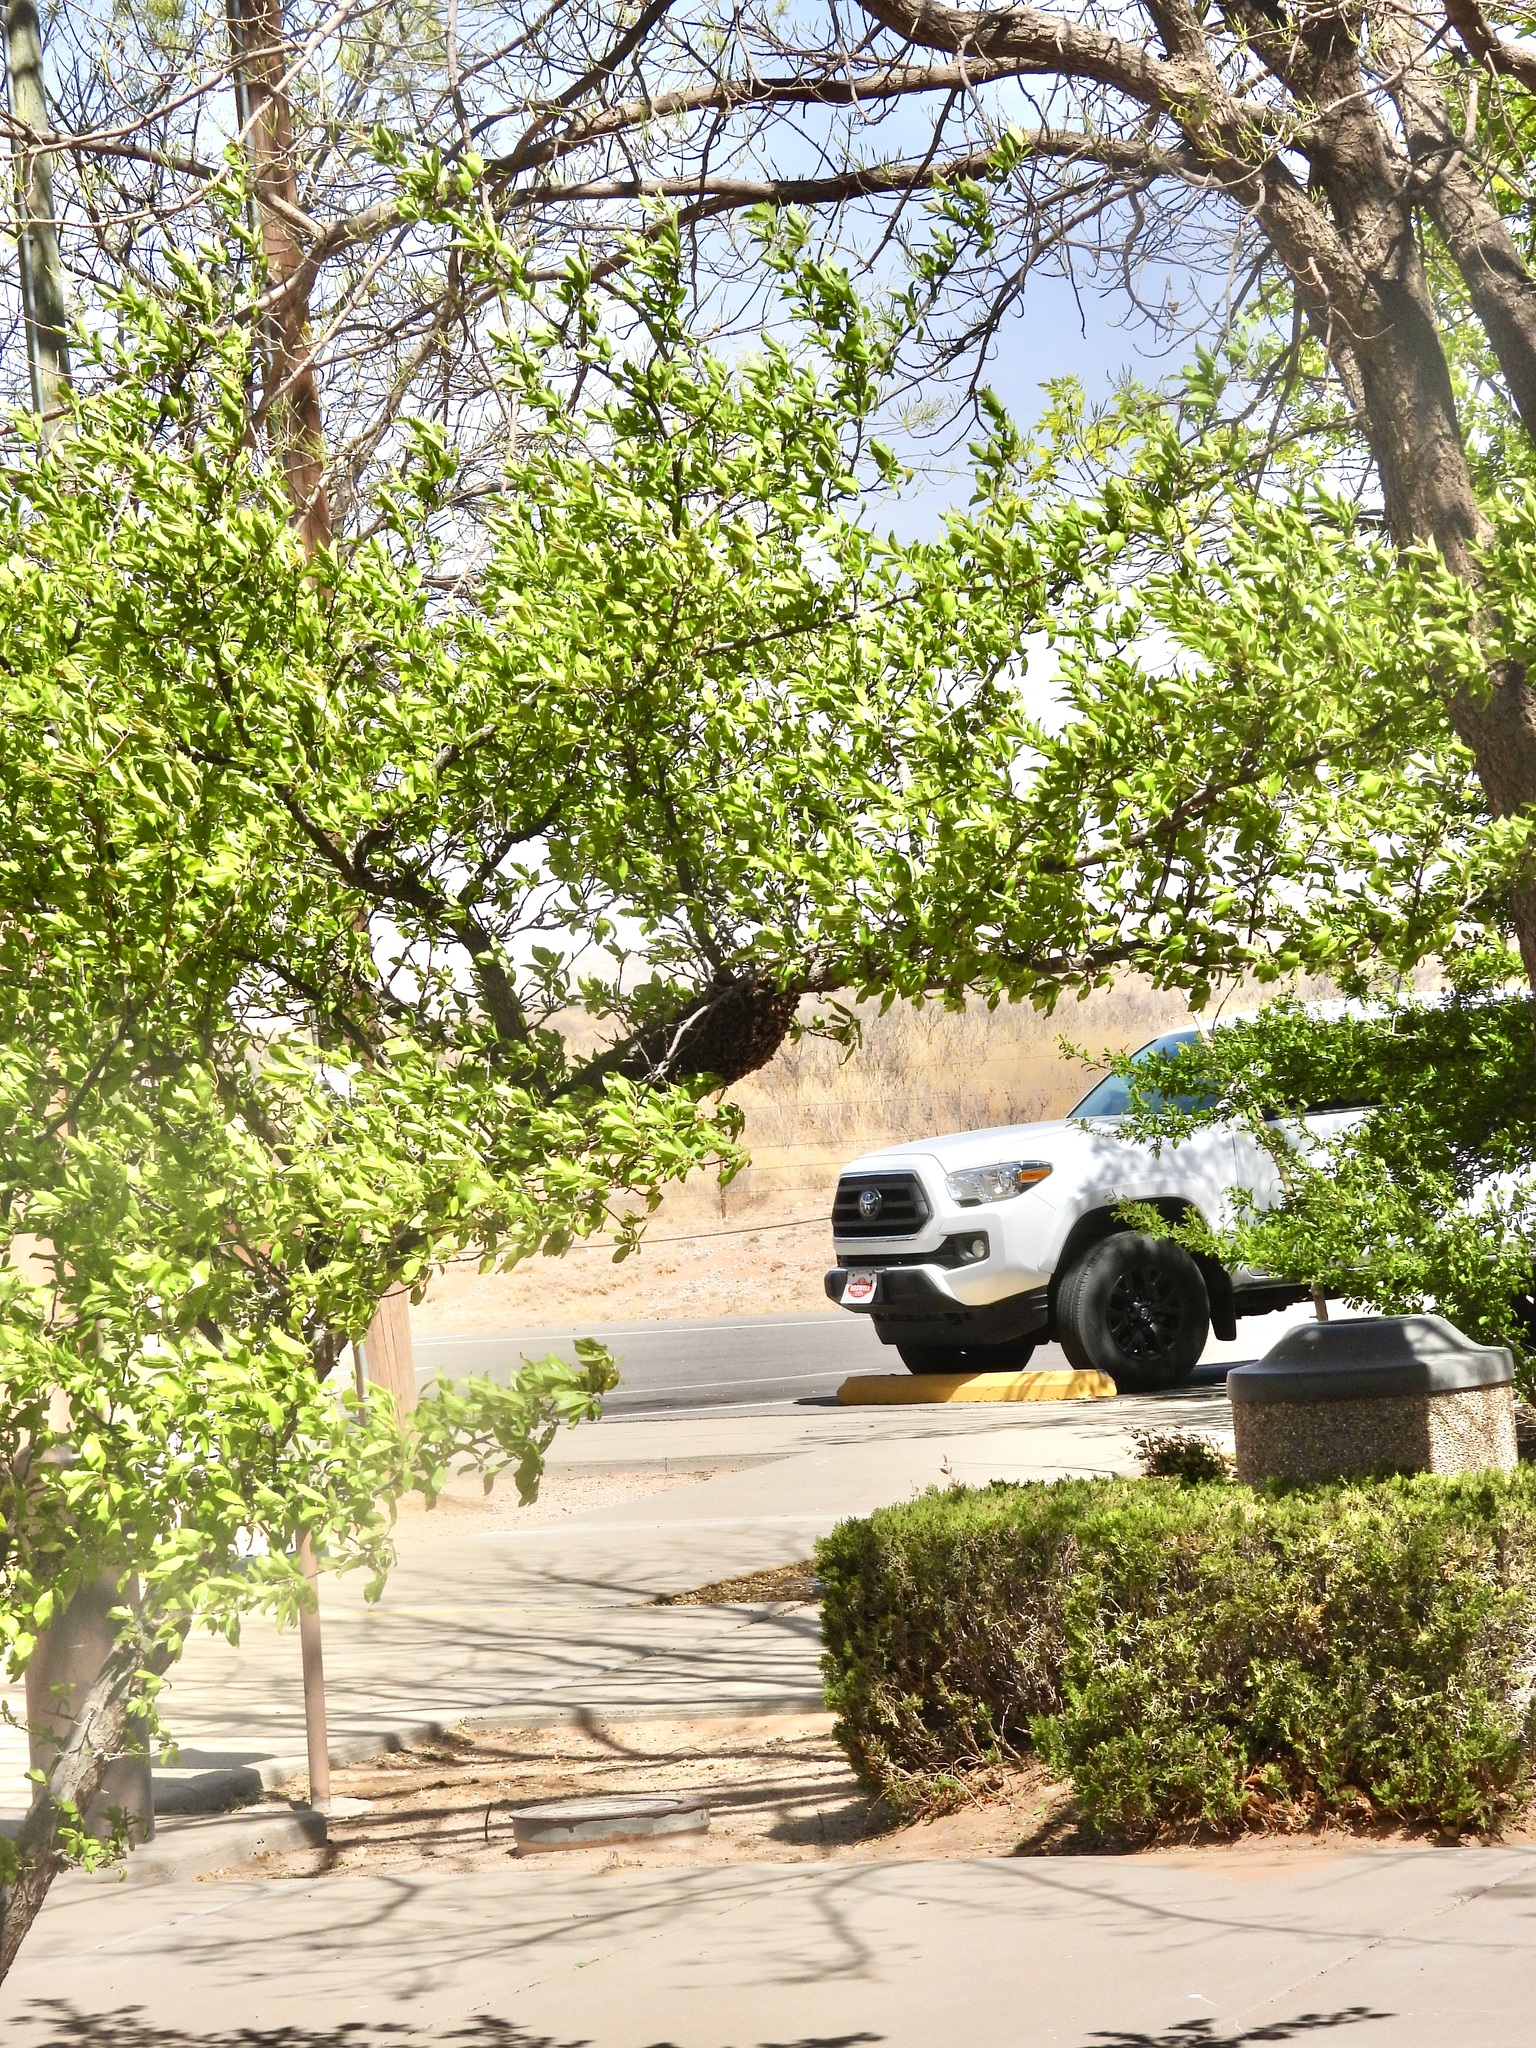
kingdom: Animalia
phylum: Arthropoda
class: Insecta
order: Hymenoptera
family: Apidae
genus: Apis
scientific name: Apis mellifera
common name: Honey bee
